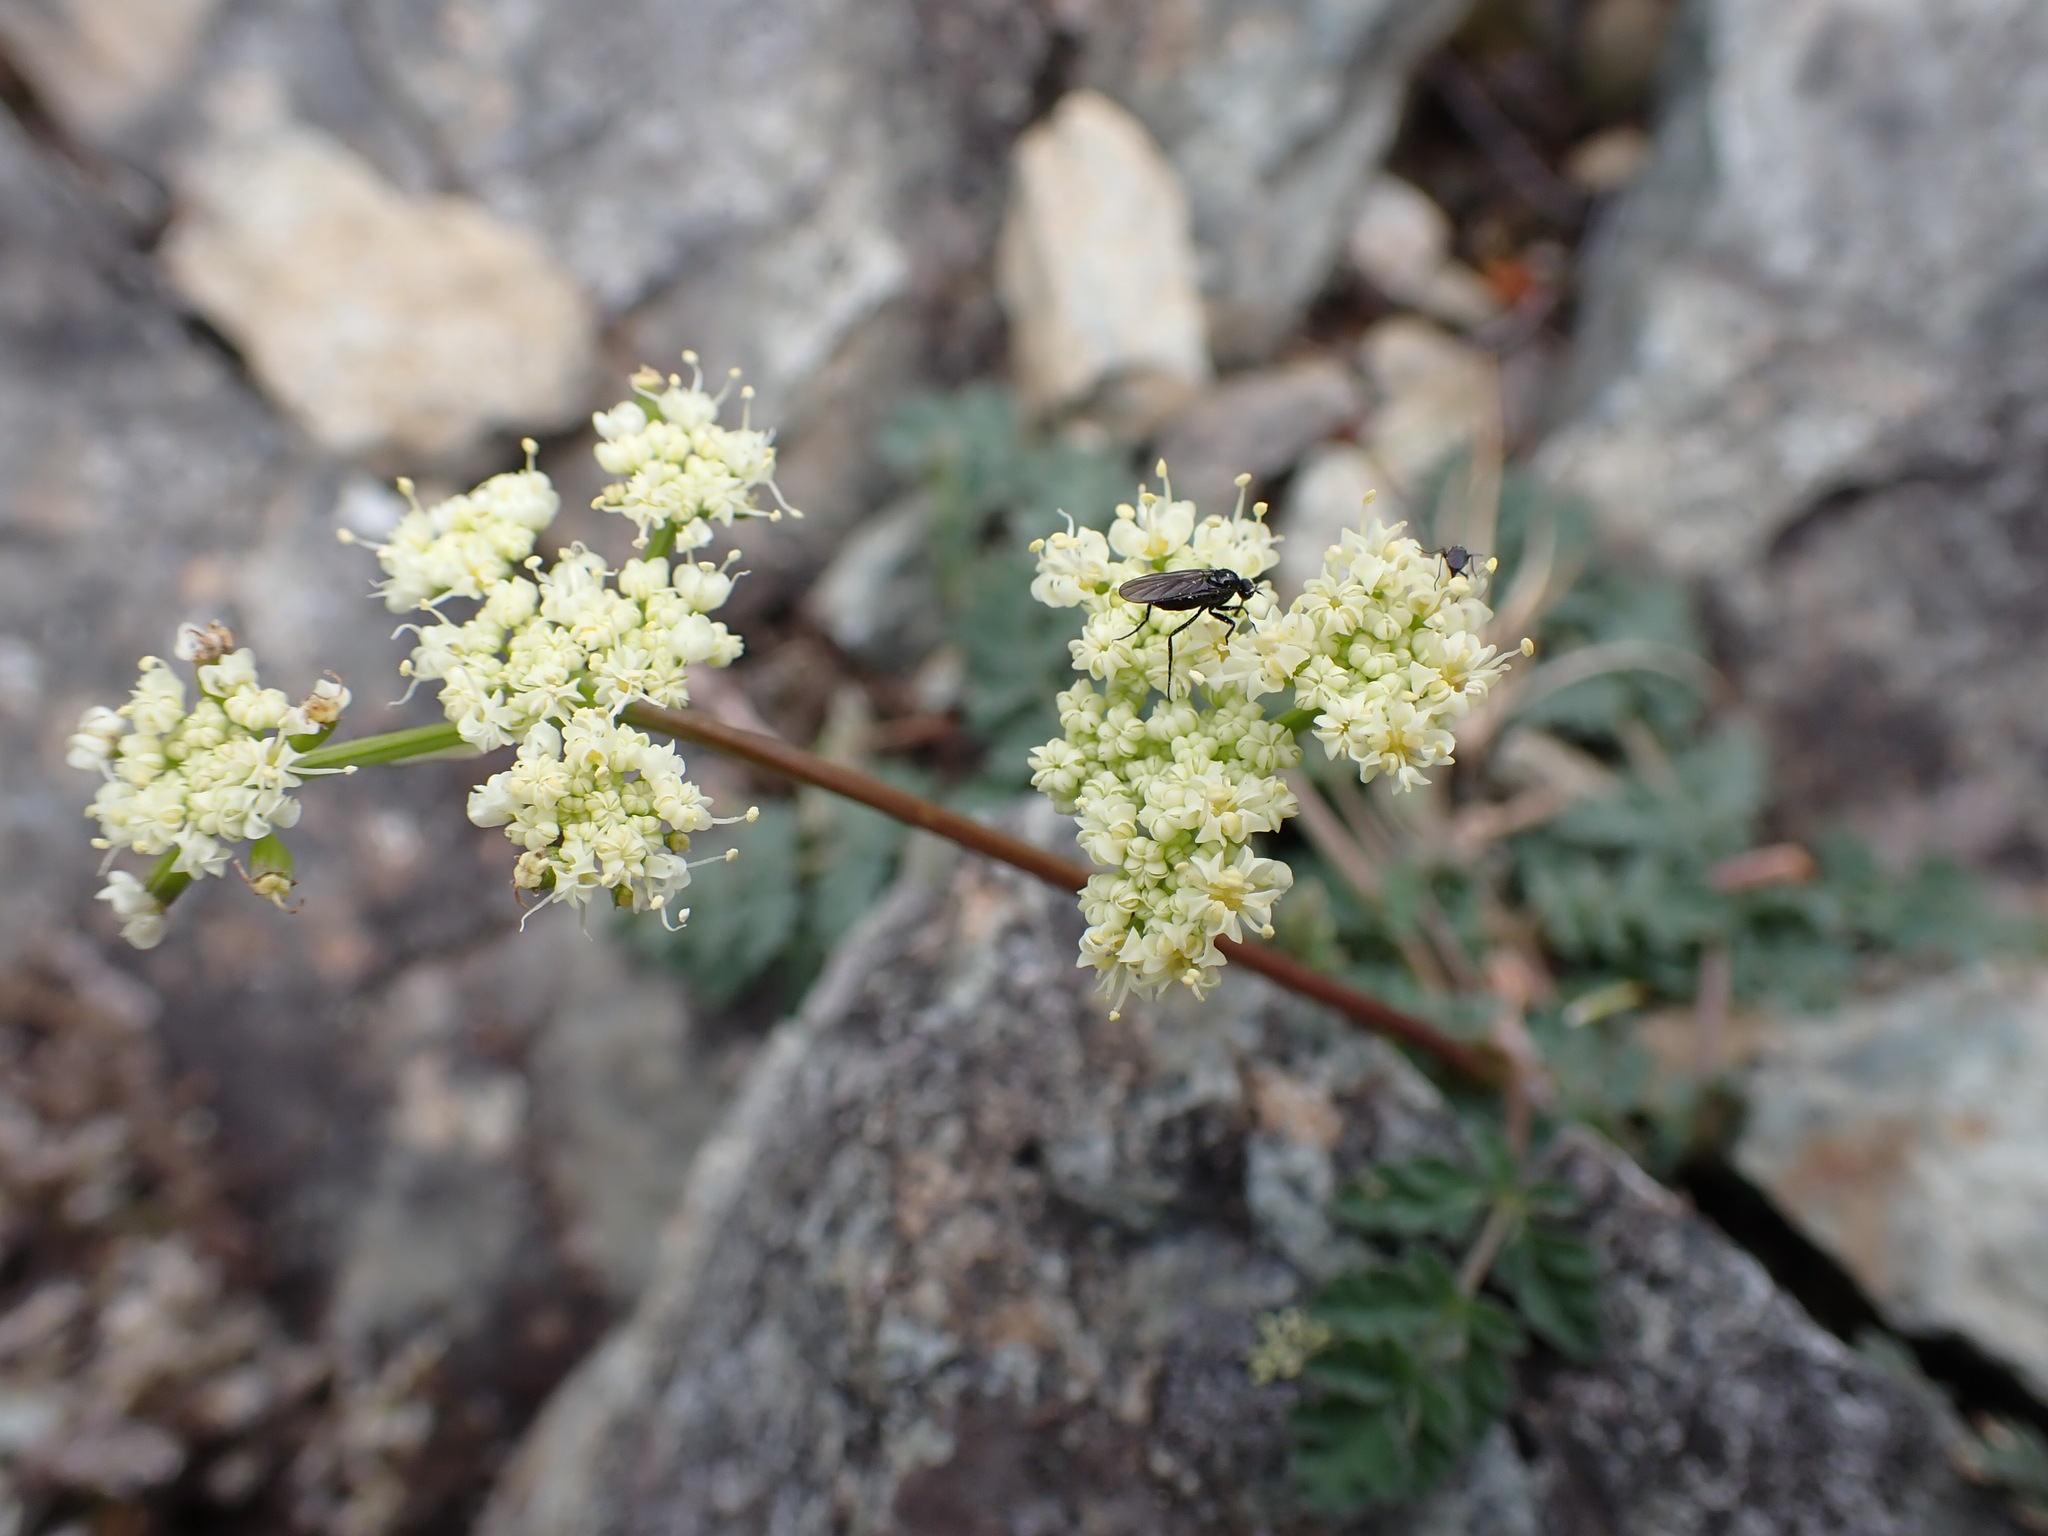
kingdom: Plantae
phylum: Tracheophyta
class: Magnoliopsida
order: Apiales
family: Apiaceae
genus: Lomatium
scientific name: Lomatium martindalei
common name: Cascade desert-parsley
